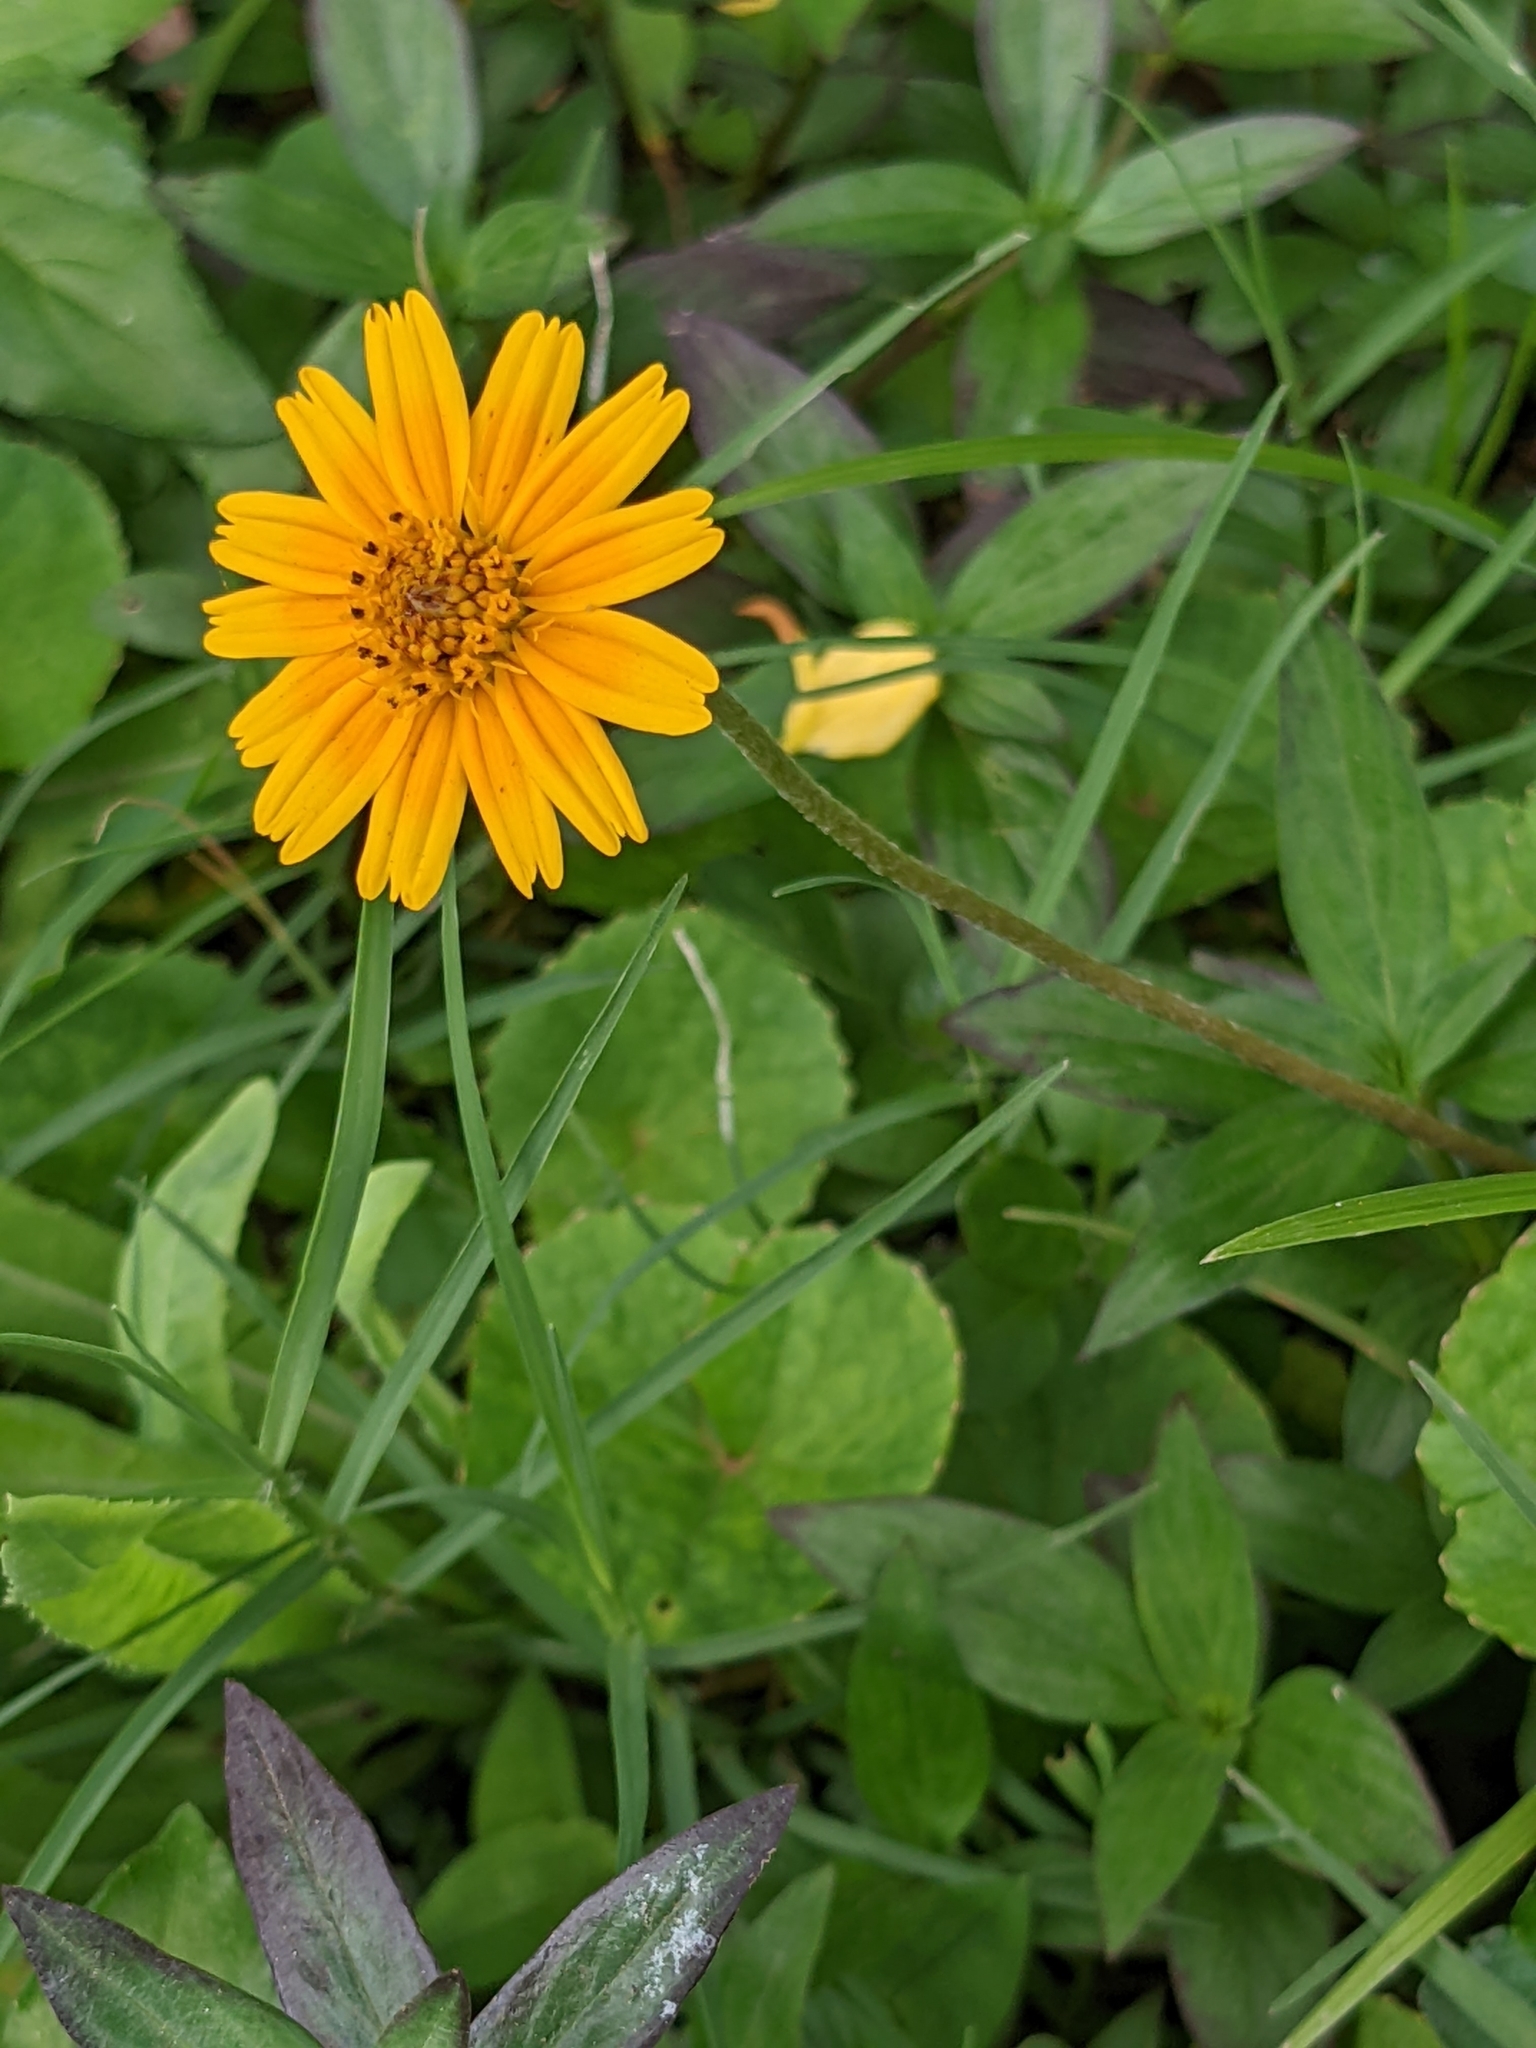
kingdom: Plantae
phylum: Tracheophyta
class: Magnoliopsida
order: Asterales
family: Asteraceae
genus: Sphagneticola
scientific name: Sphagneticola trilobata
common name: Bay biscayne creeping-oxeye
